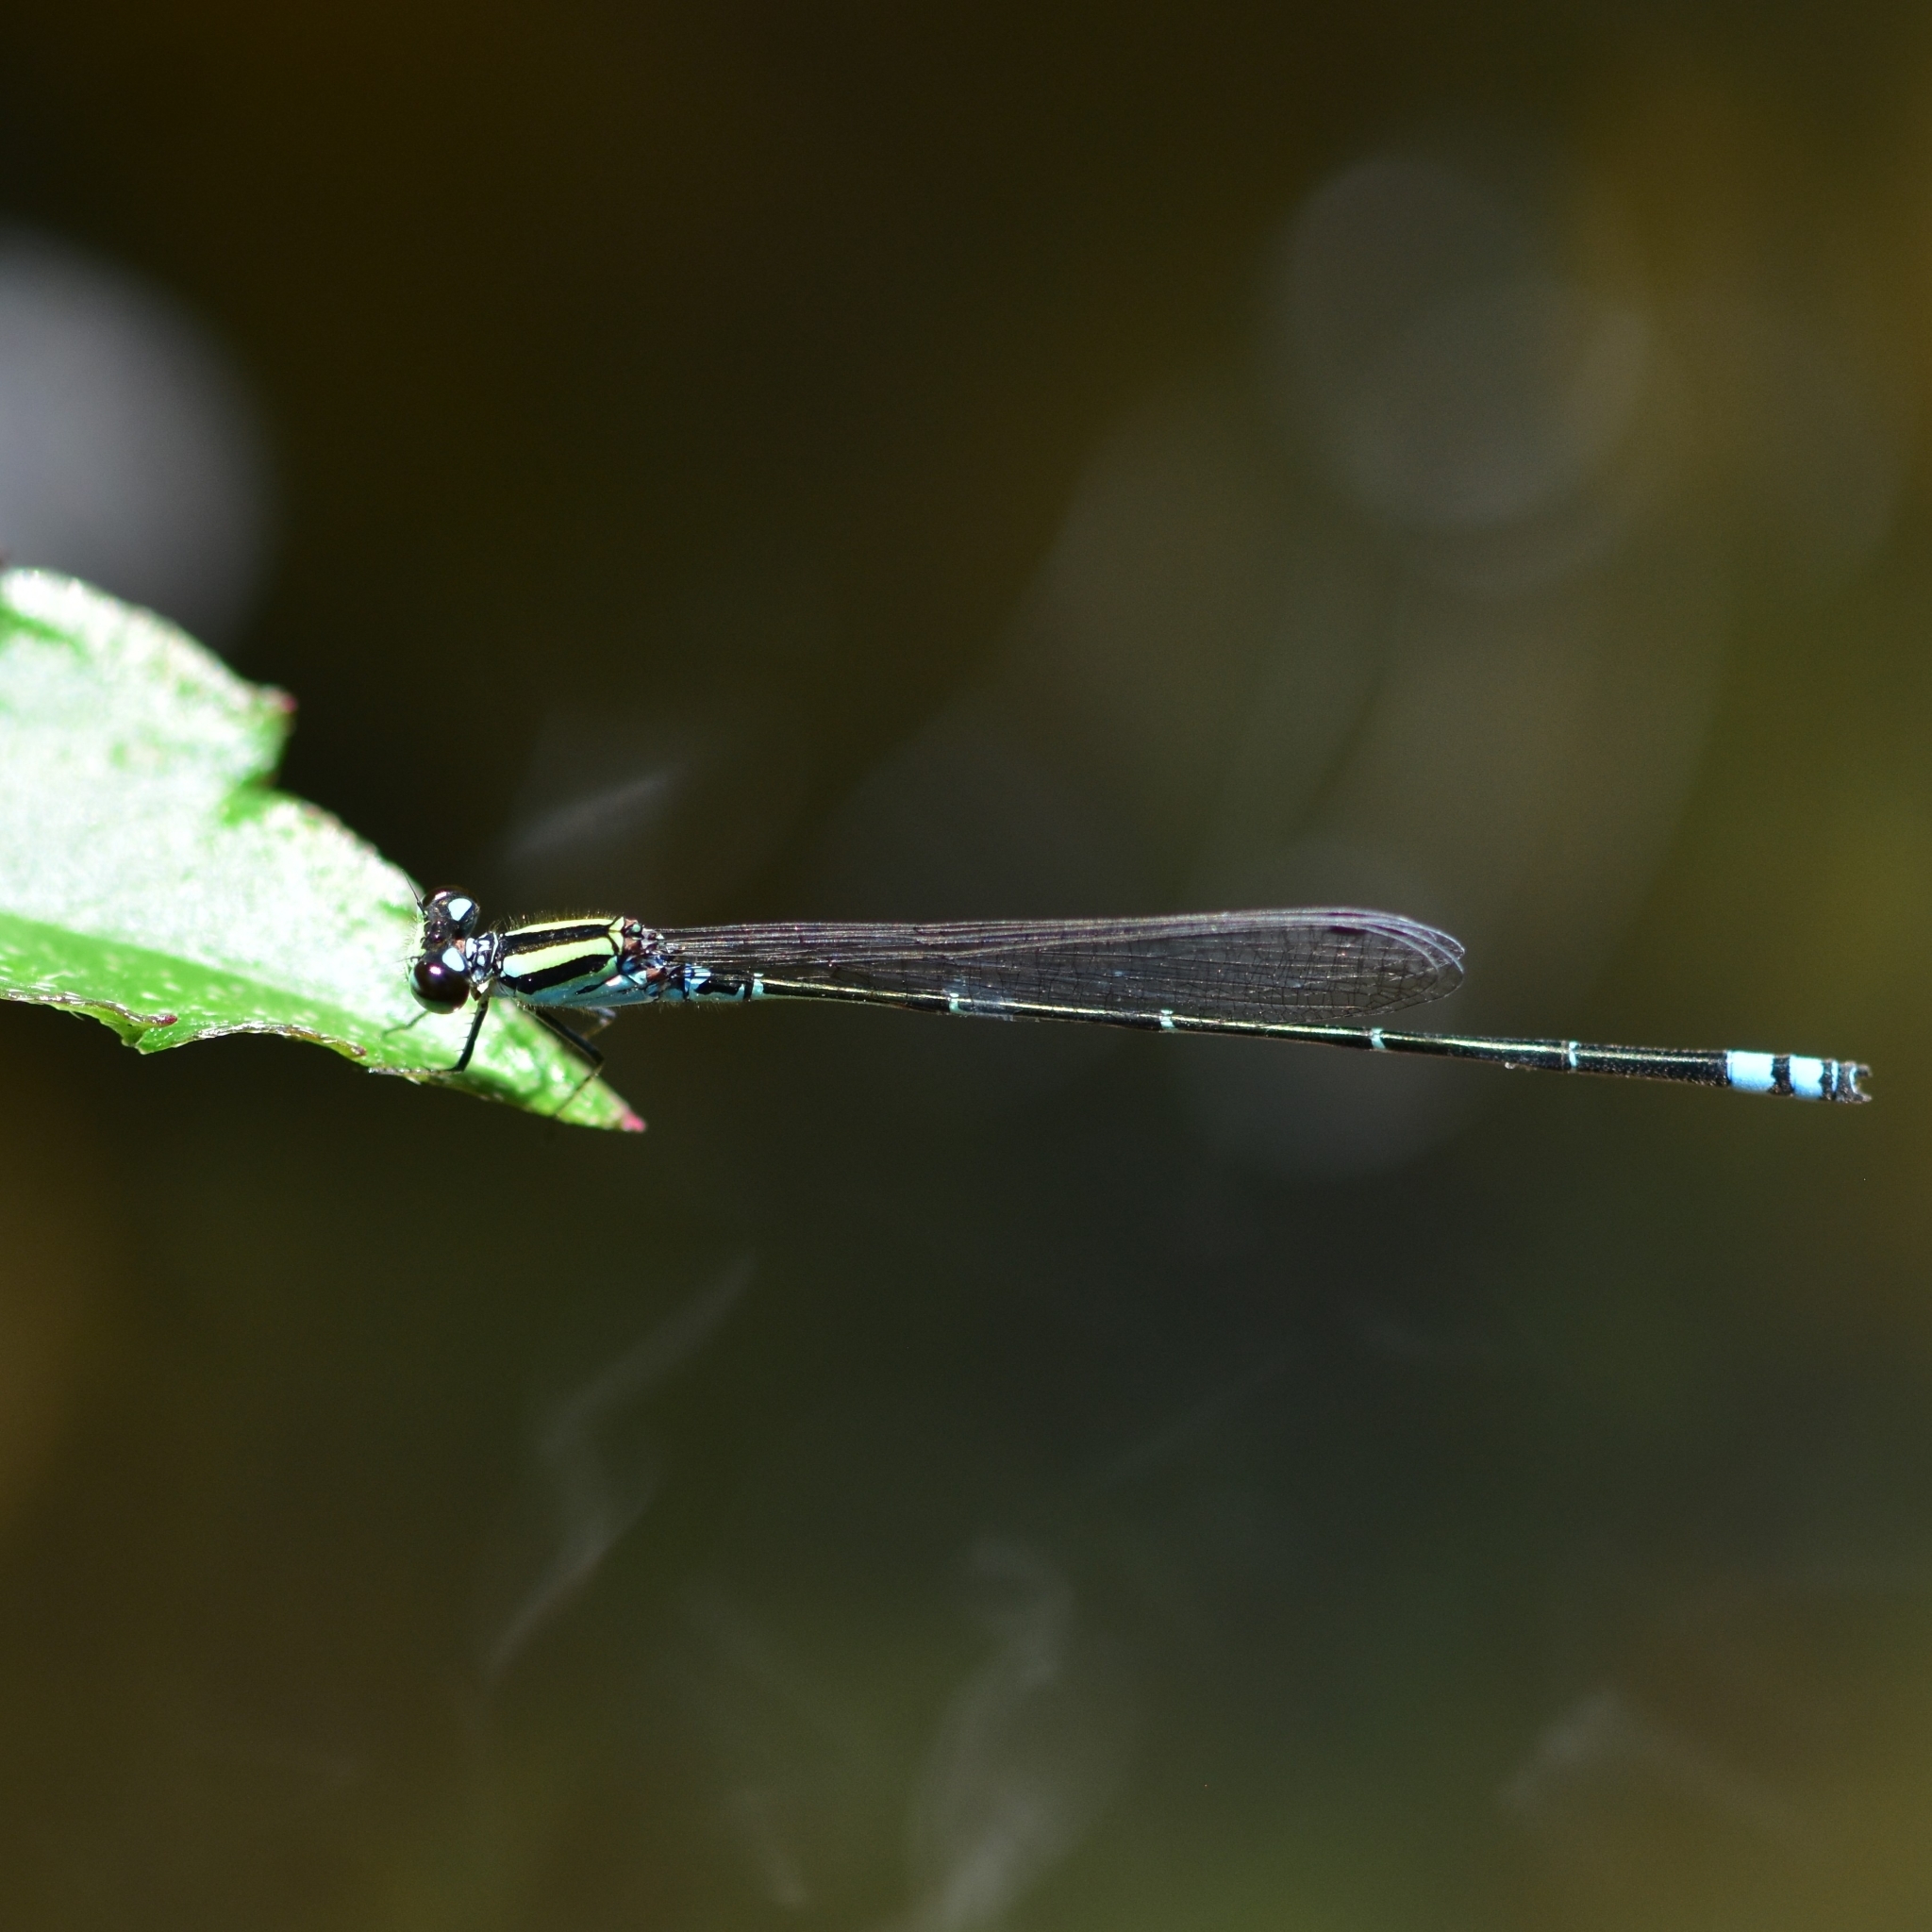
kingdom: Animalia
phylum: Arthropoda
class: Insecta
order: Odonata
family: Coenagrionidae
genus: Pseudagrion
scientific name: Pseudagrion indicum
